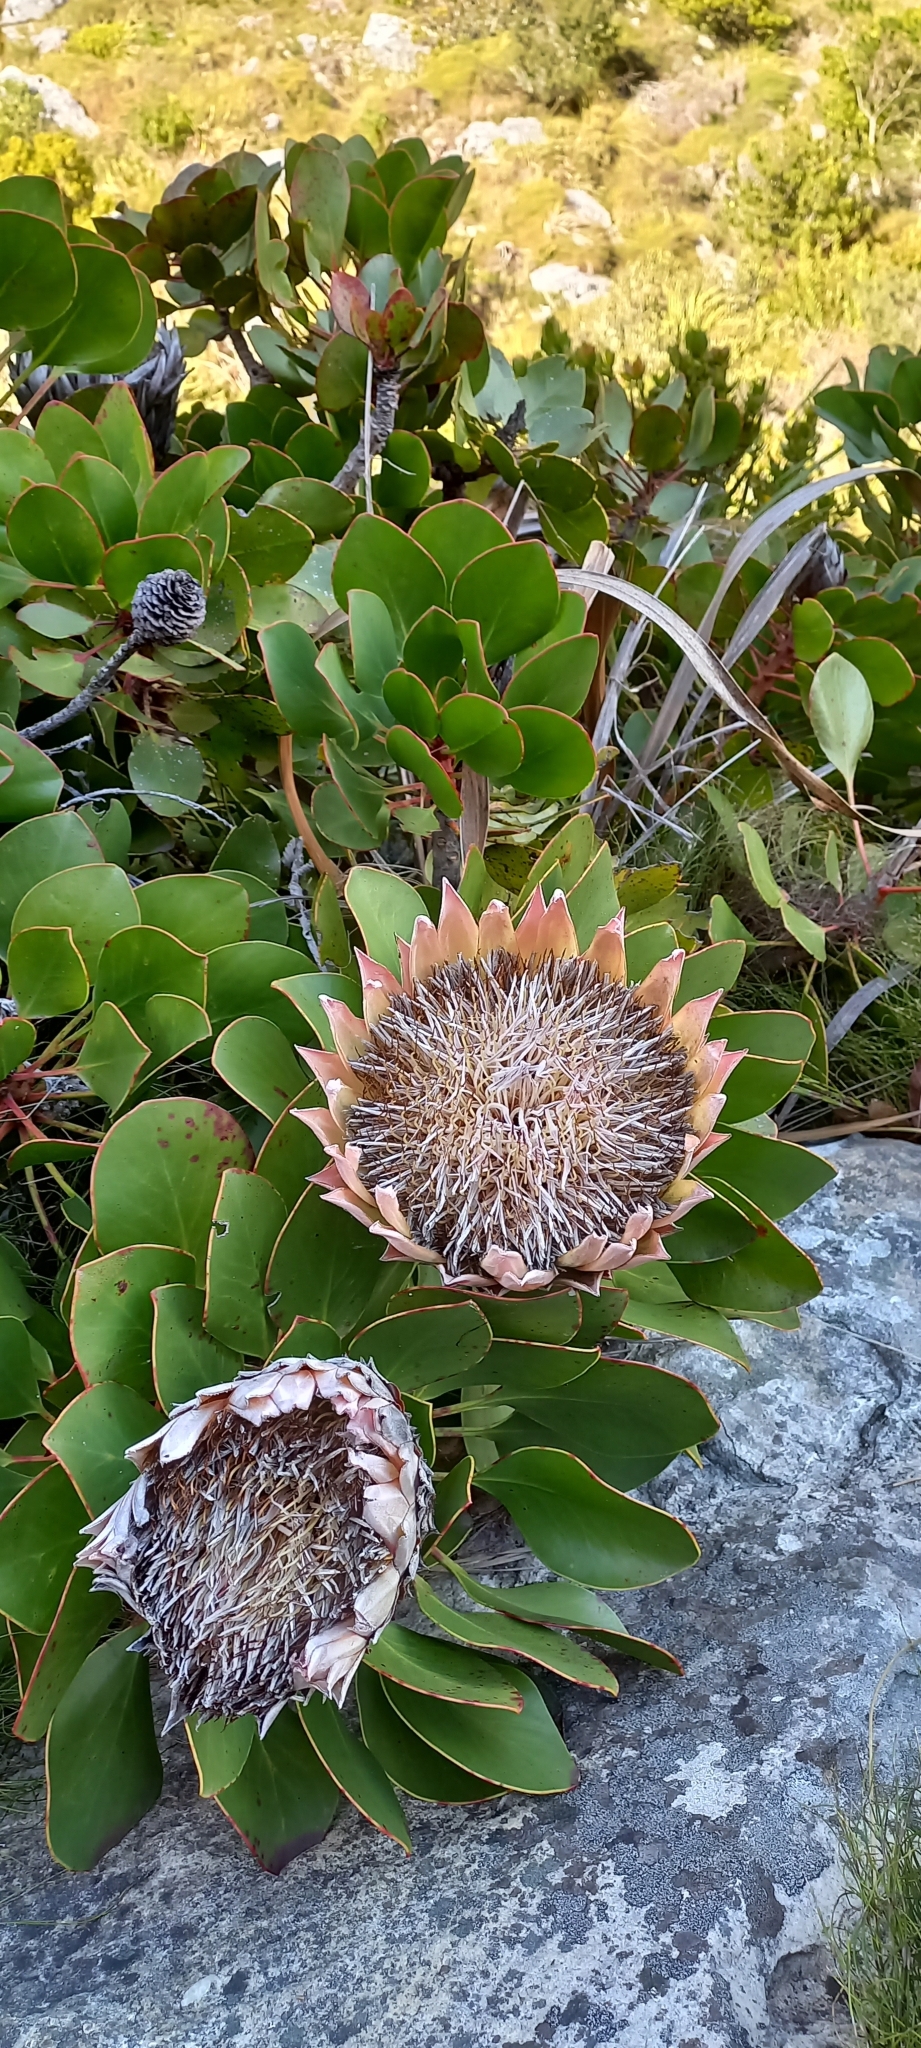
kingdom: Plantae
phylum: Tracheophyta
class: Magnoliopsida
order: Proteales
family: Proteaceae
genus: Protea
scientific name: Protea cynaroides
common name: King protea
